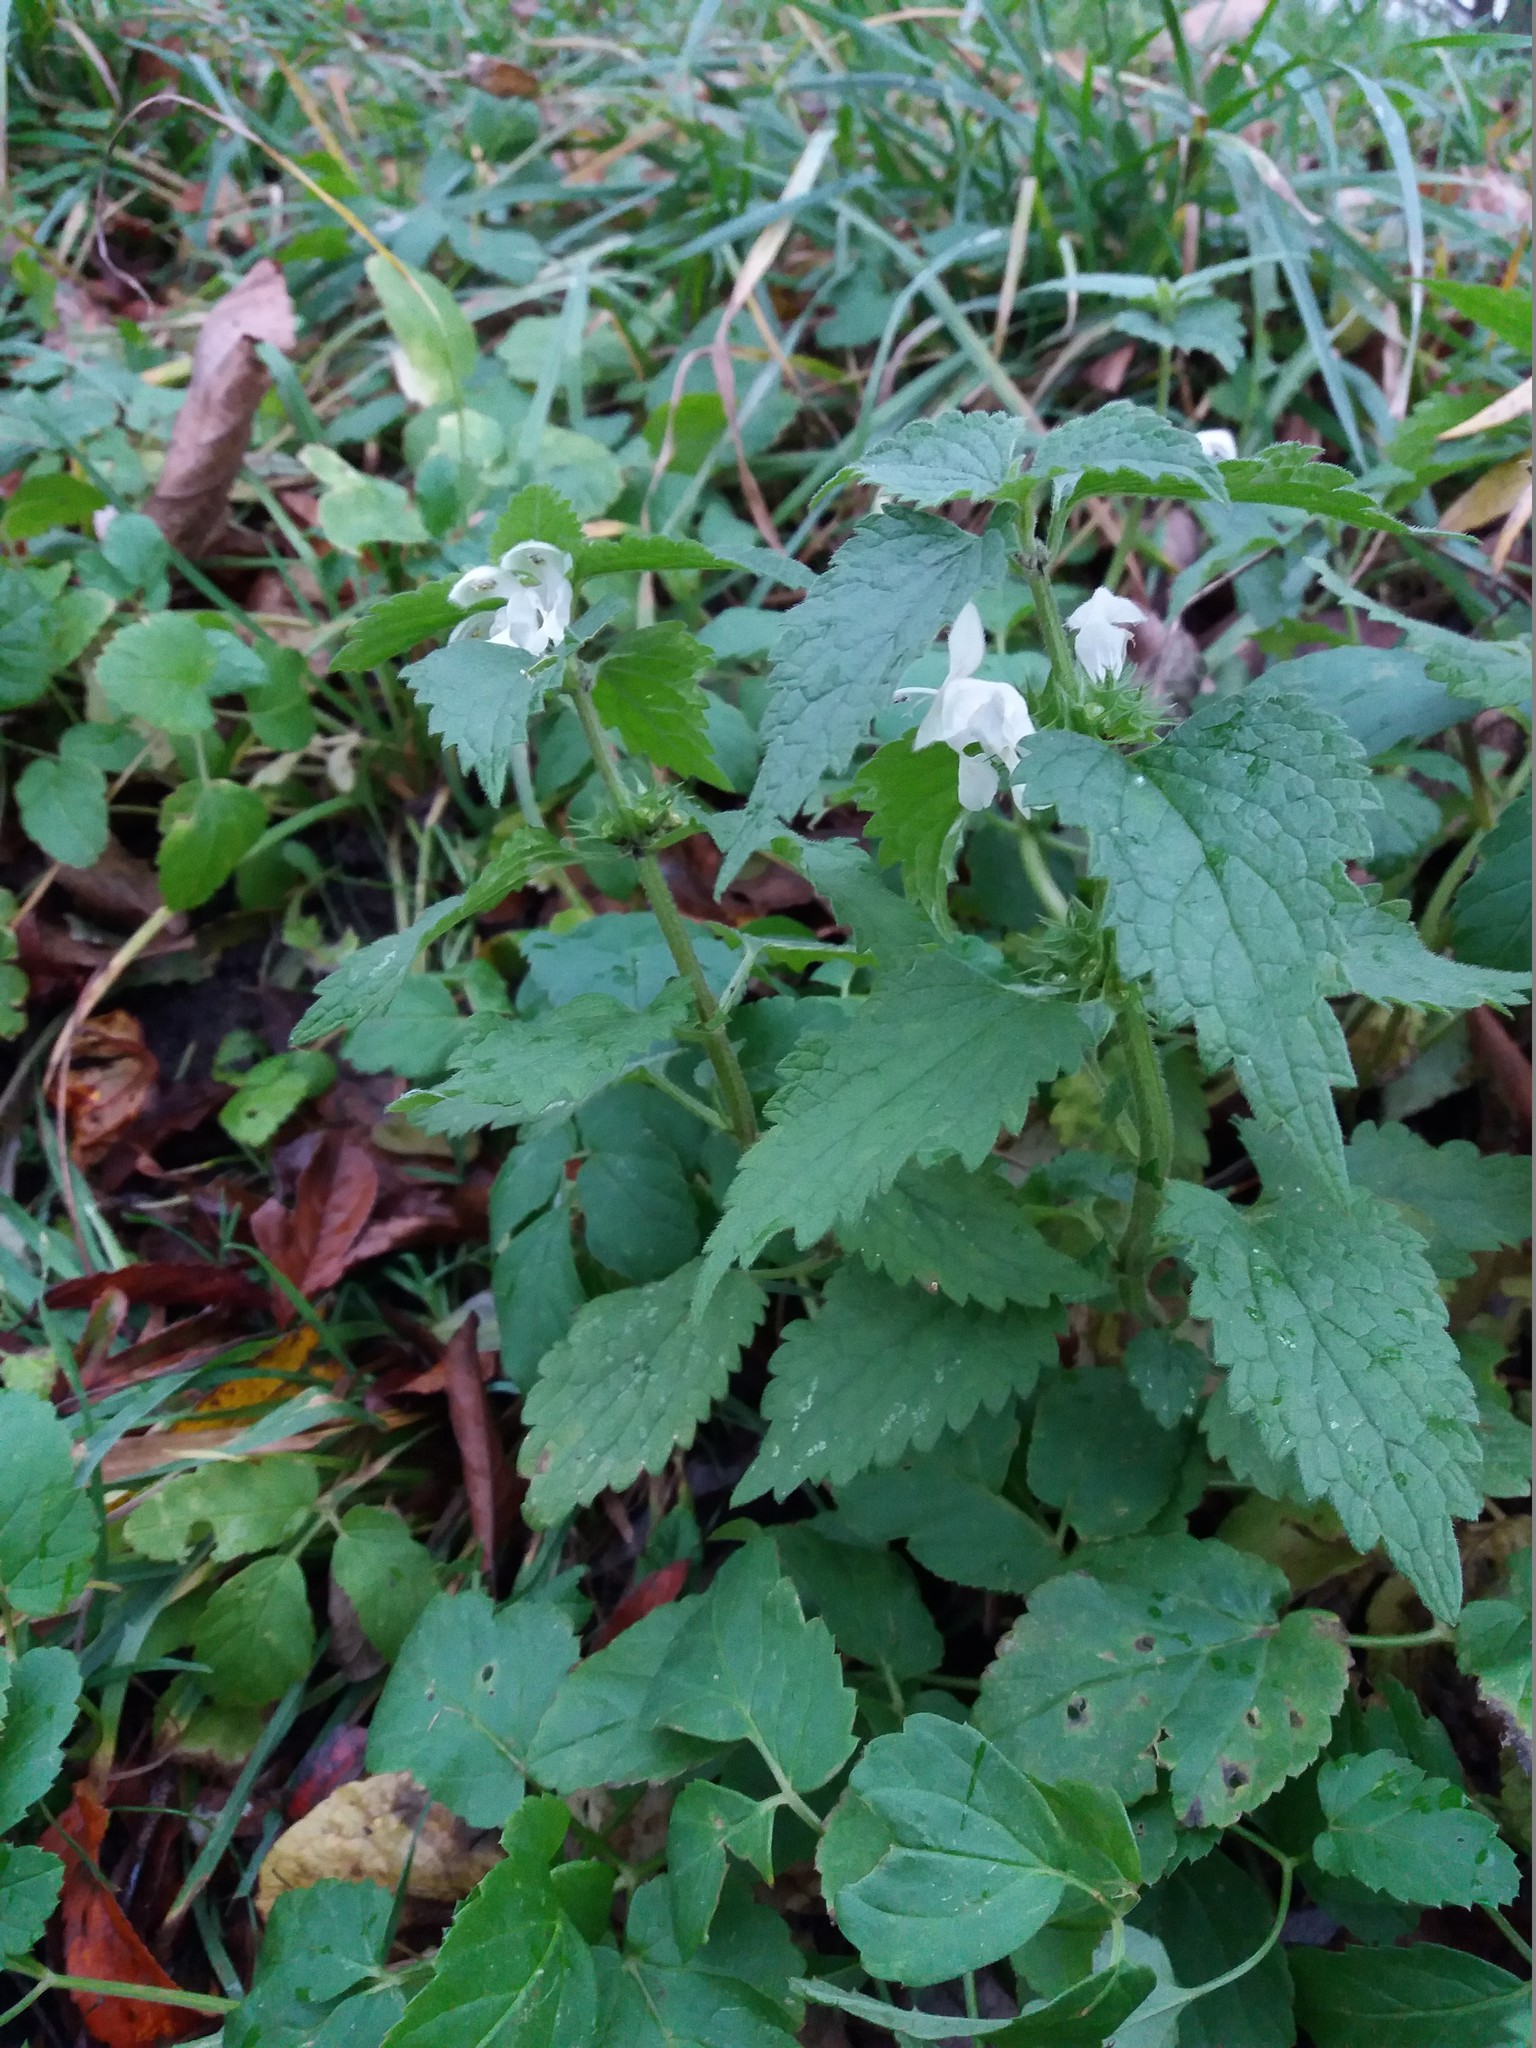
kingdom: Plantae
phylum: Tracheophyta
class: Magnoliopsida
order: Lamiales
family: Lamiaceae
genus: Lamium
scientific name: Lamium album
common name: White dead-nettle
